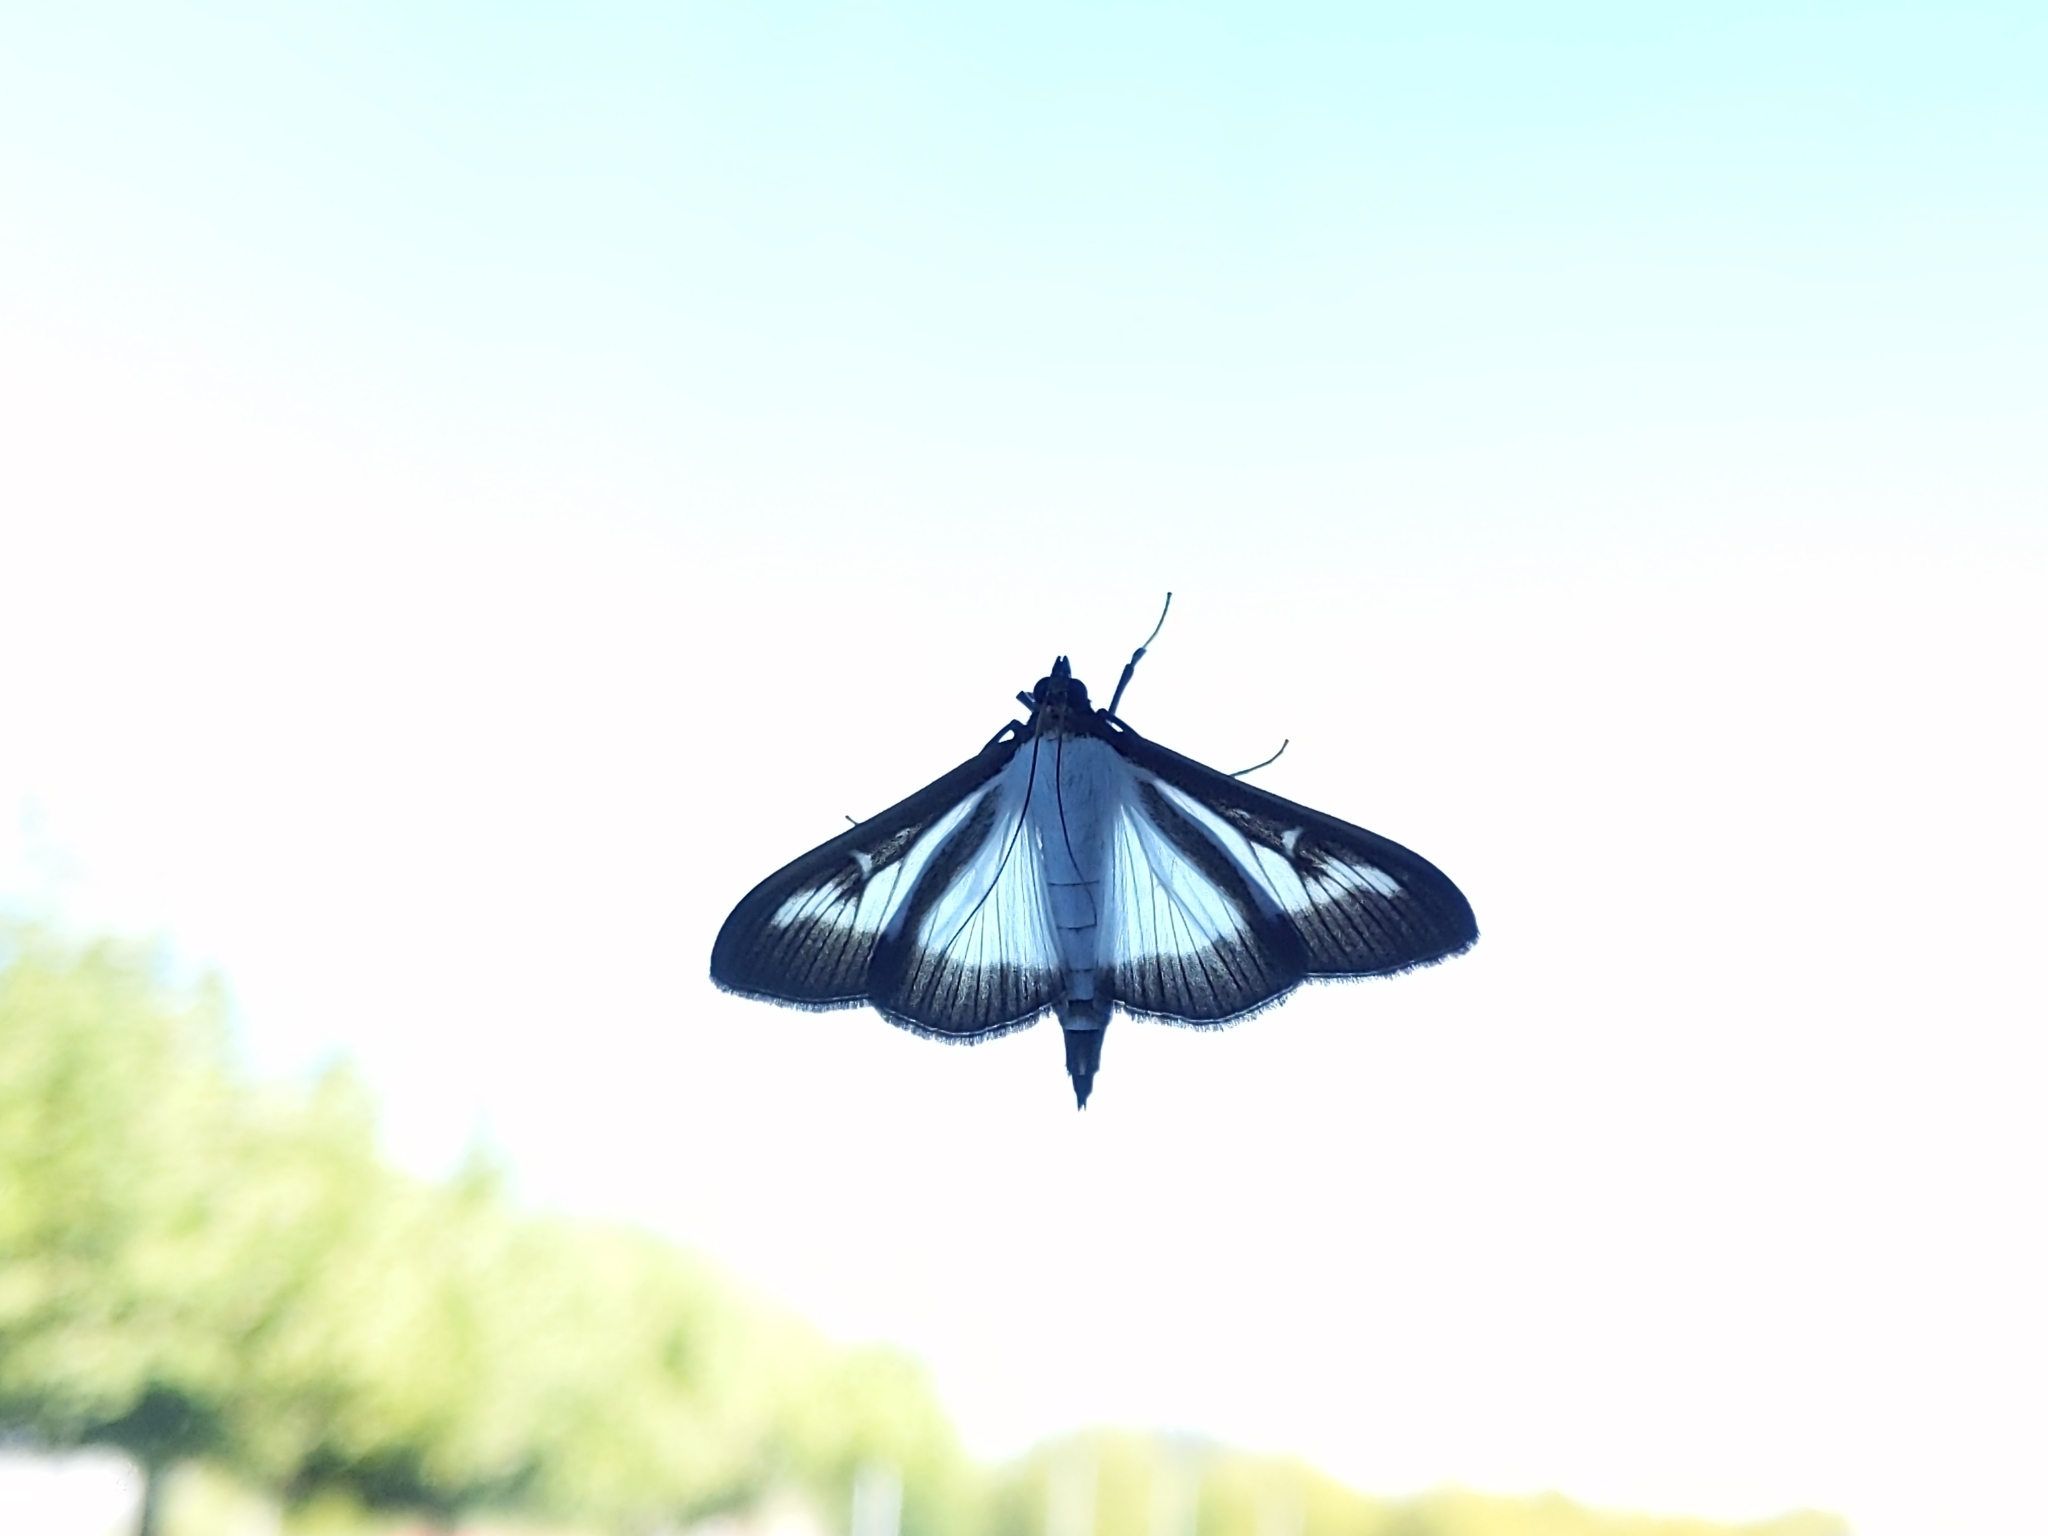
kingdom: Animalia
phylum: Arthropoda
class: Insecta
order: Lepidoptera
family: Crambidae
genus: Cydalima
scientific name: Cydalima perspectalis
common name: Box tree moth
